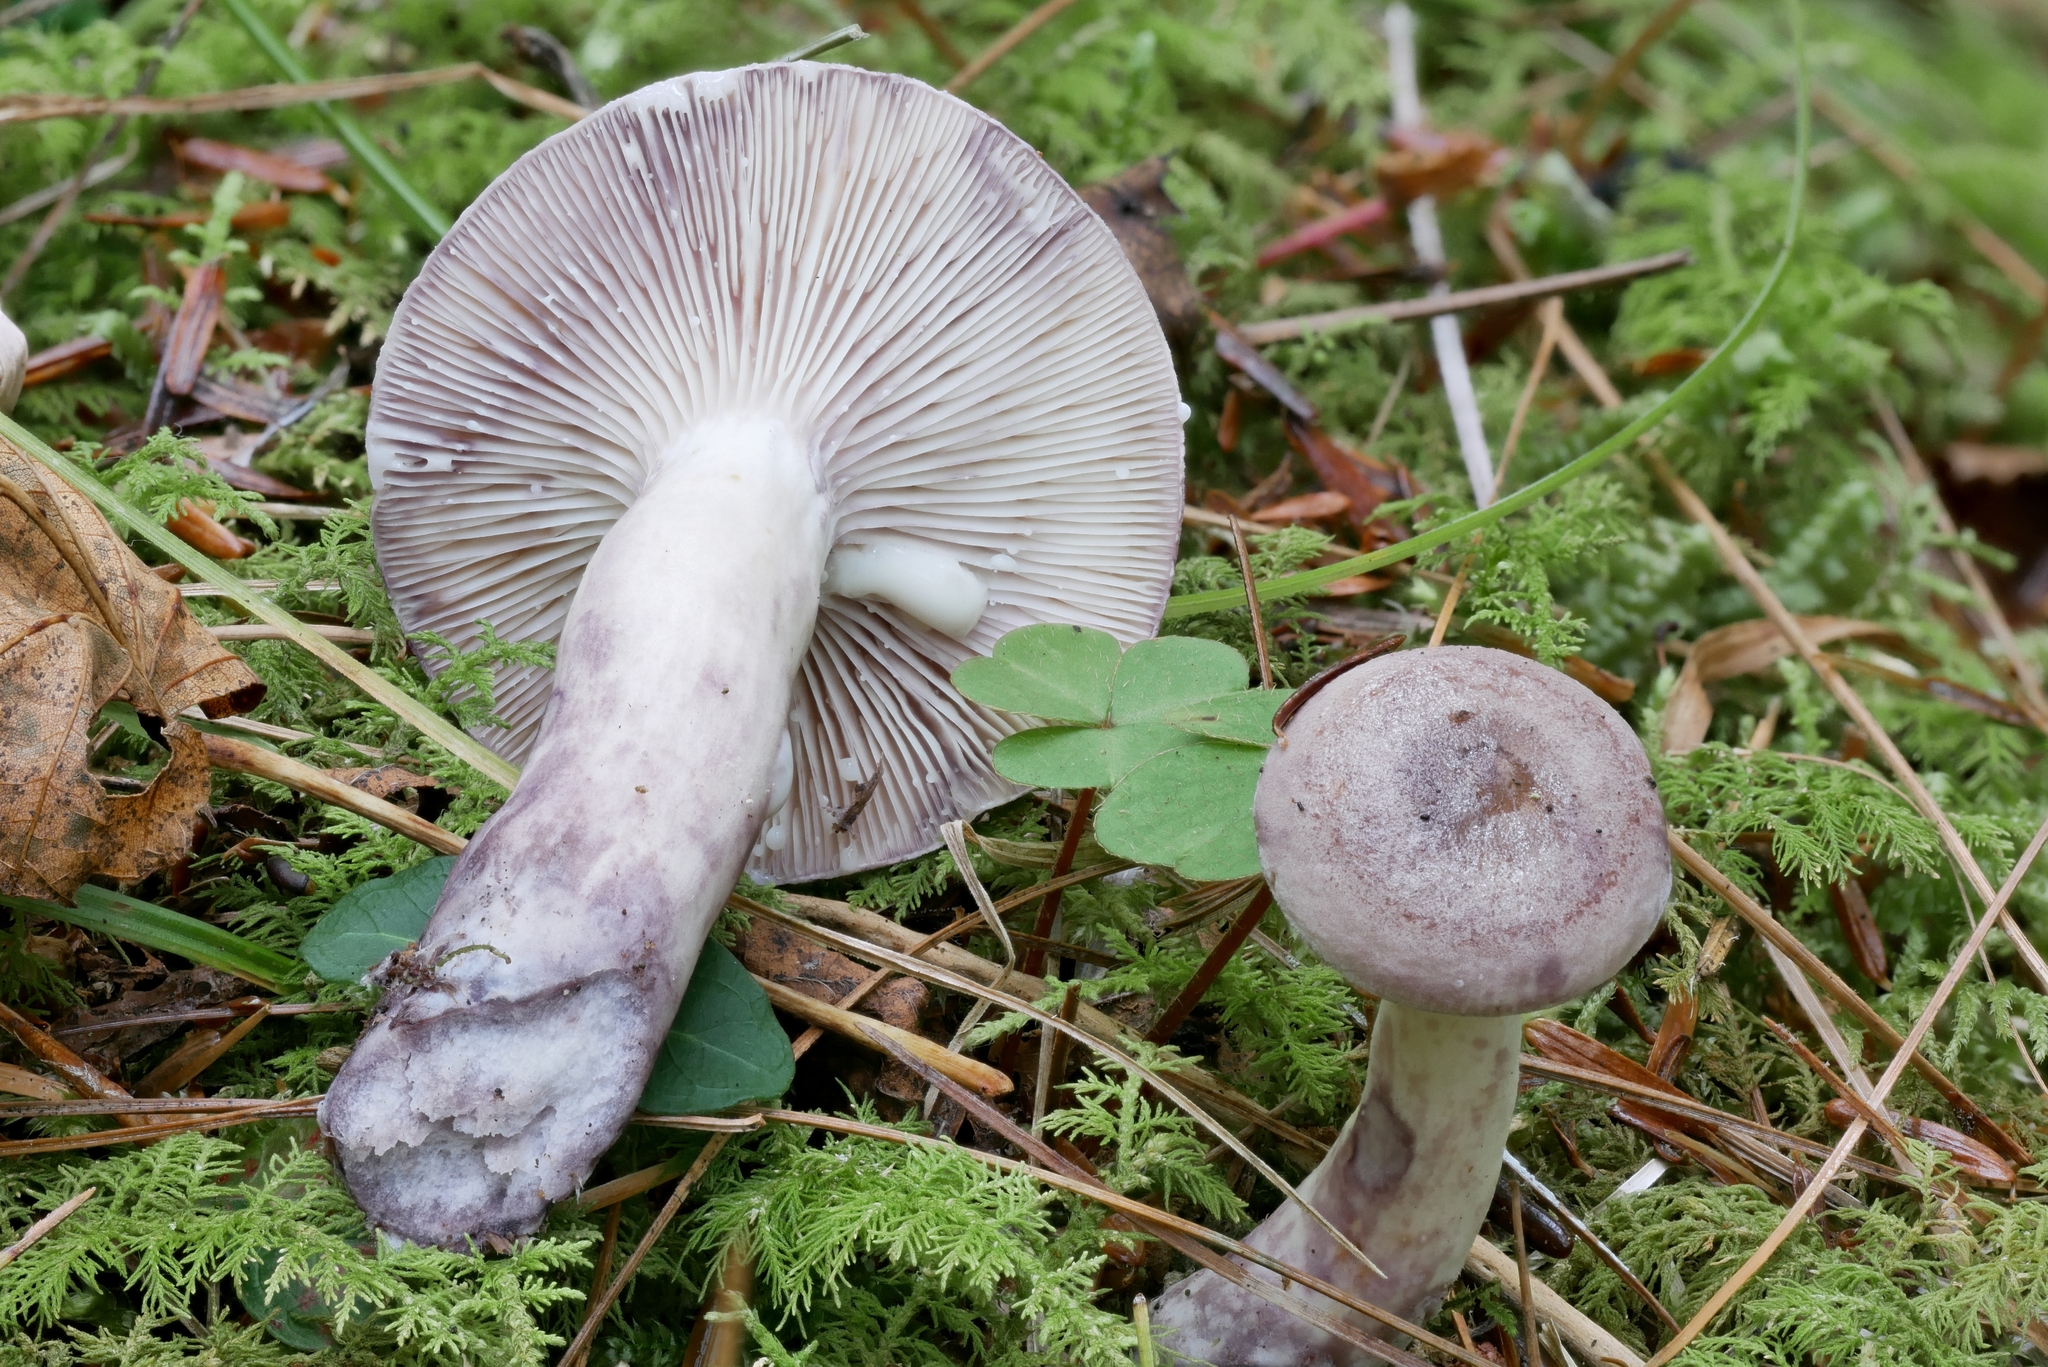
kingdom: Fungi
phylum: Basidiomycota
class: Agaricomycetes
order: Russulales
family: Russulaceae
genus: Lactarius
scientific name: Lactarius uvidus
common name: Shiner milkcap
